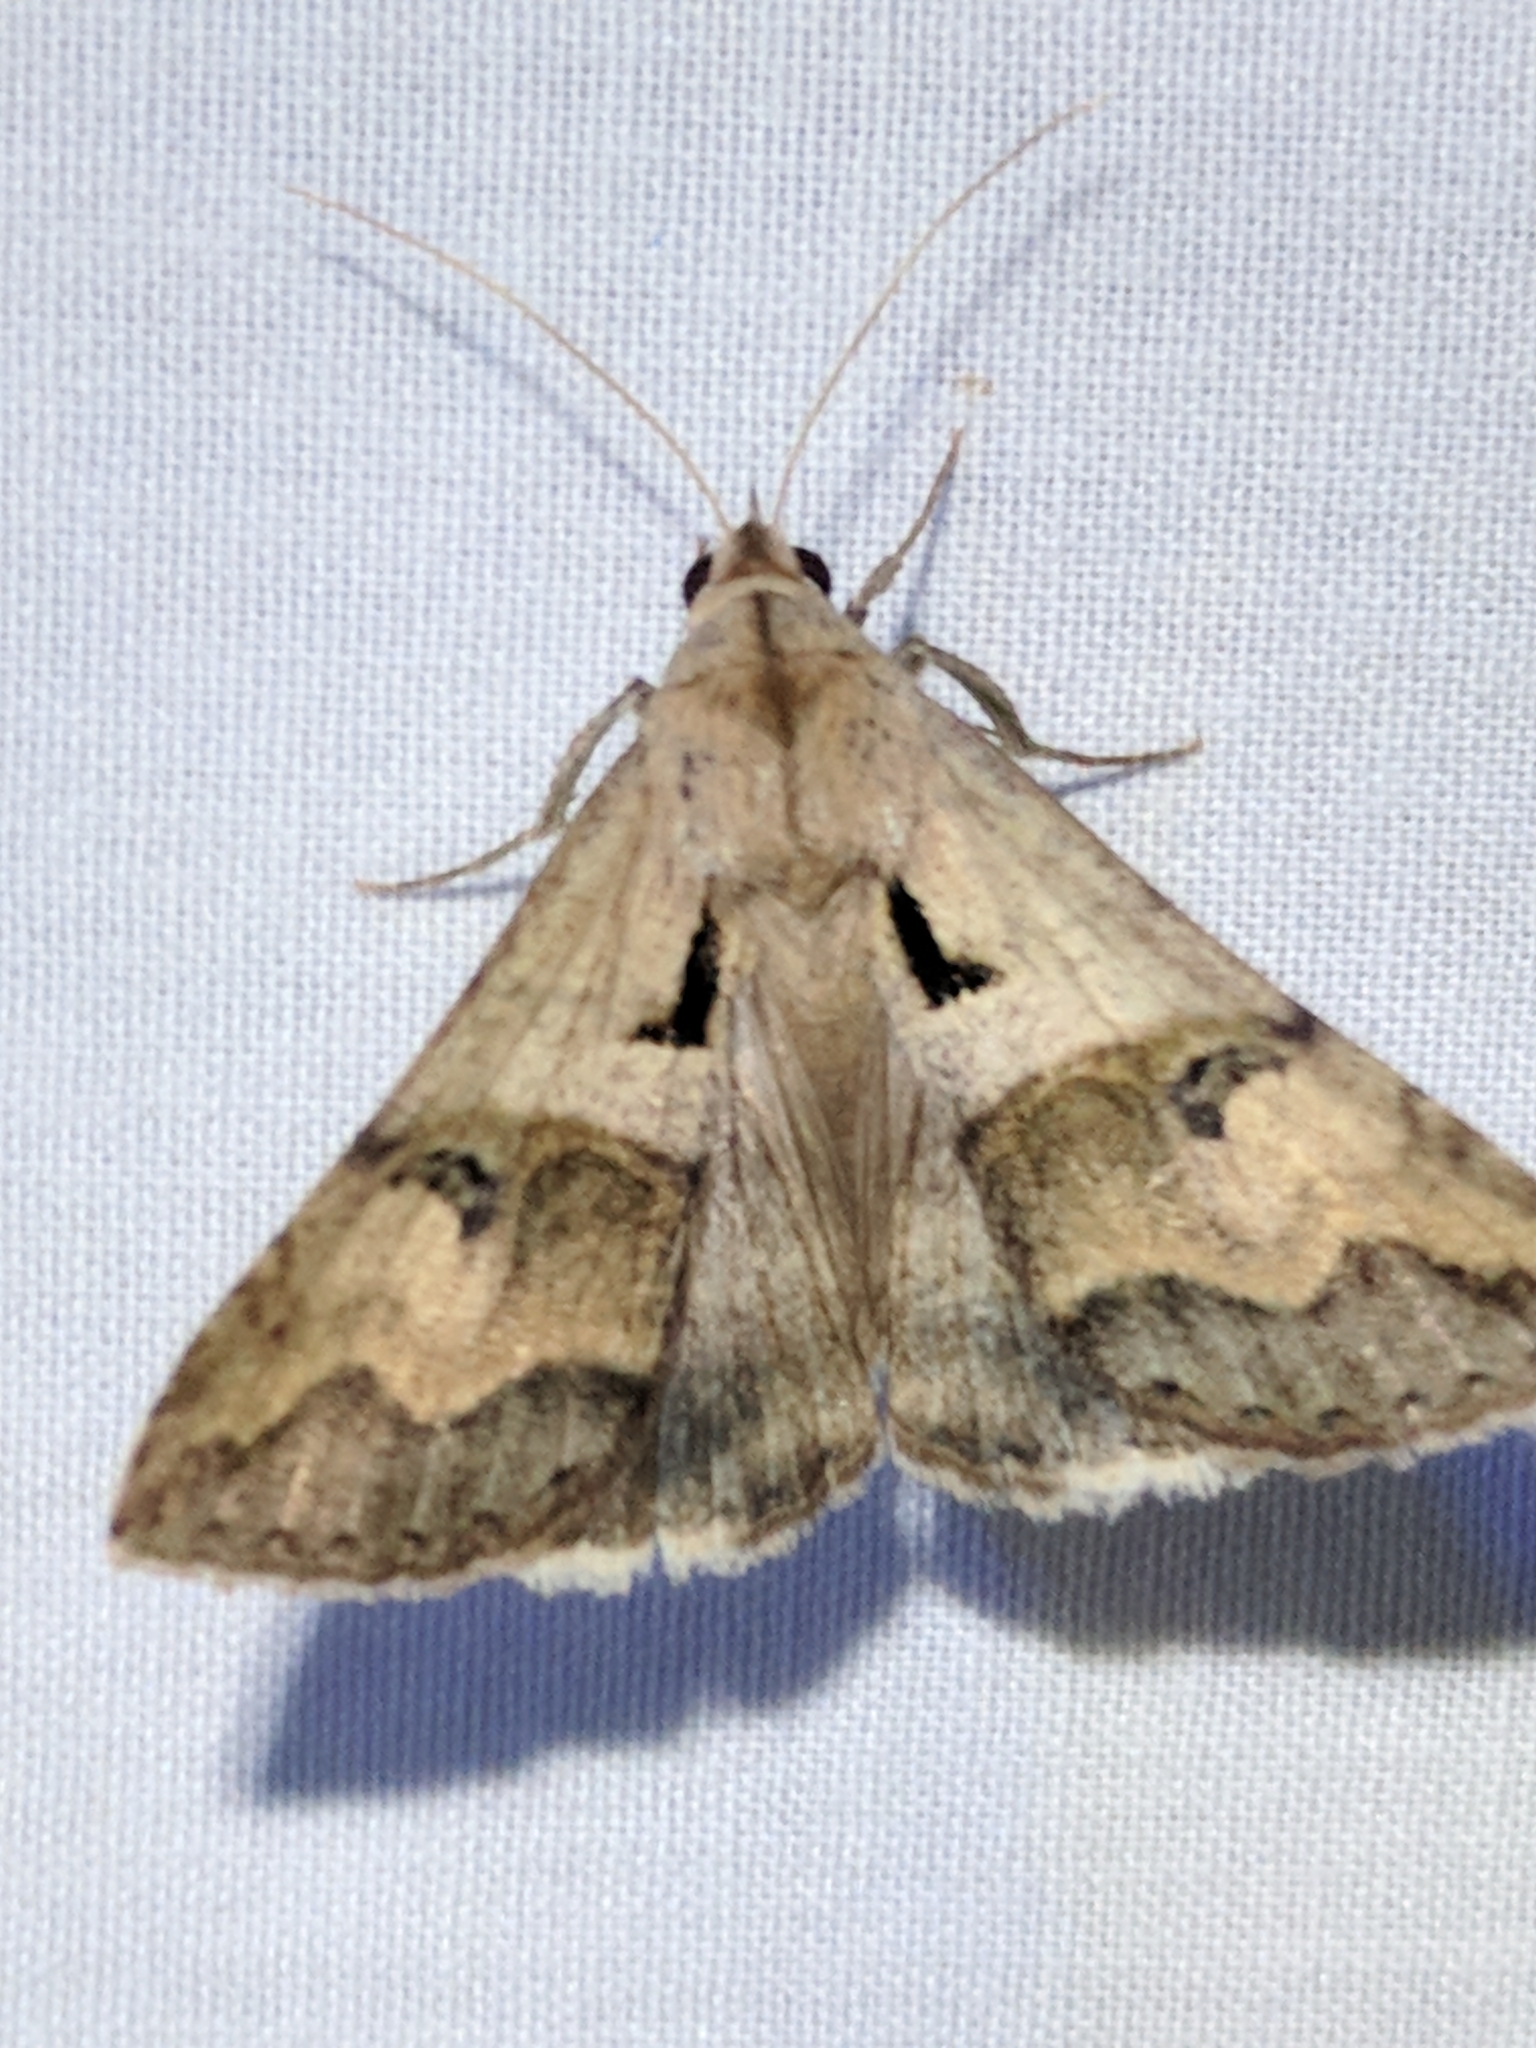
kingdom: Animalia
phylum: Arthropoda
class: Insecta
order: Lepidoptera
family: Erebidae
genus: Melipotis
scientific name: Melipotis cellaris
